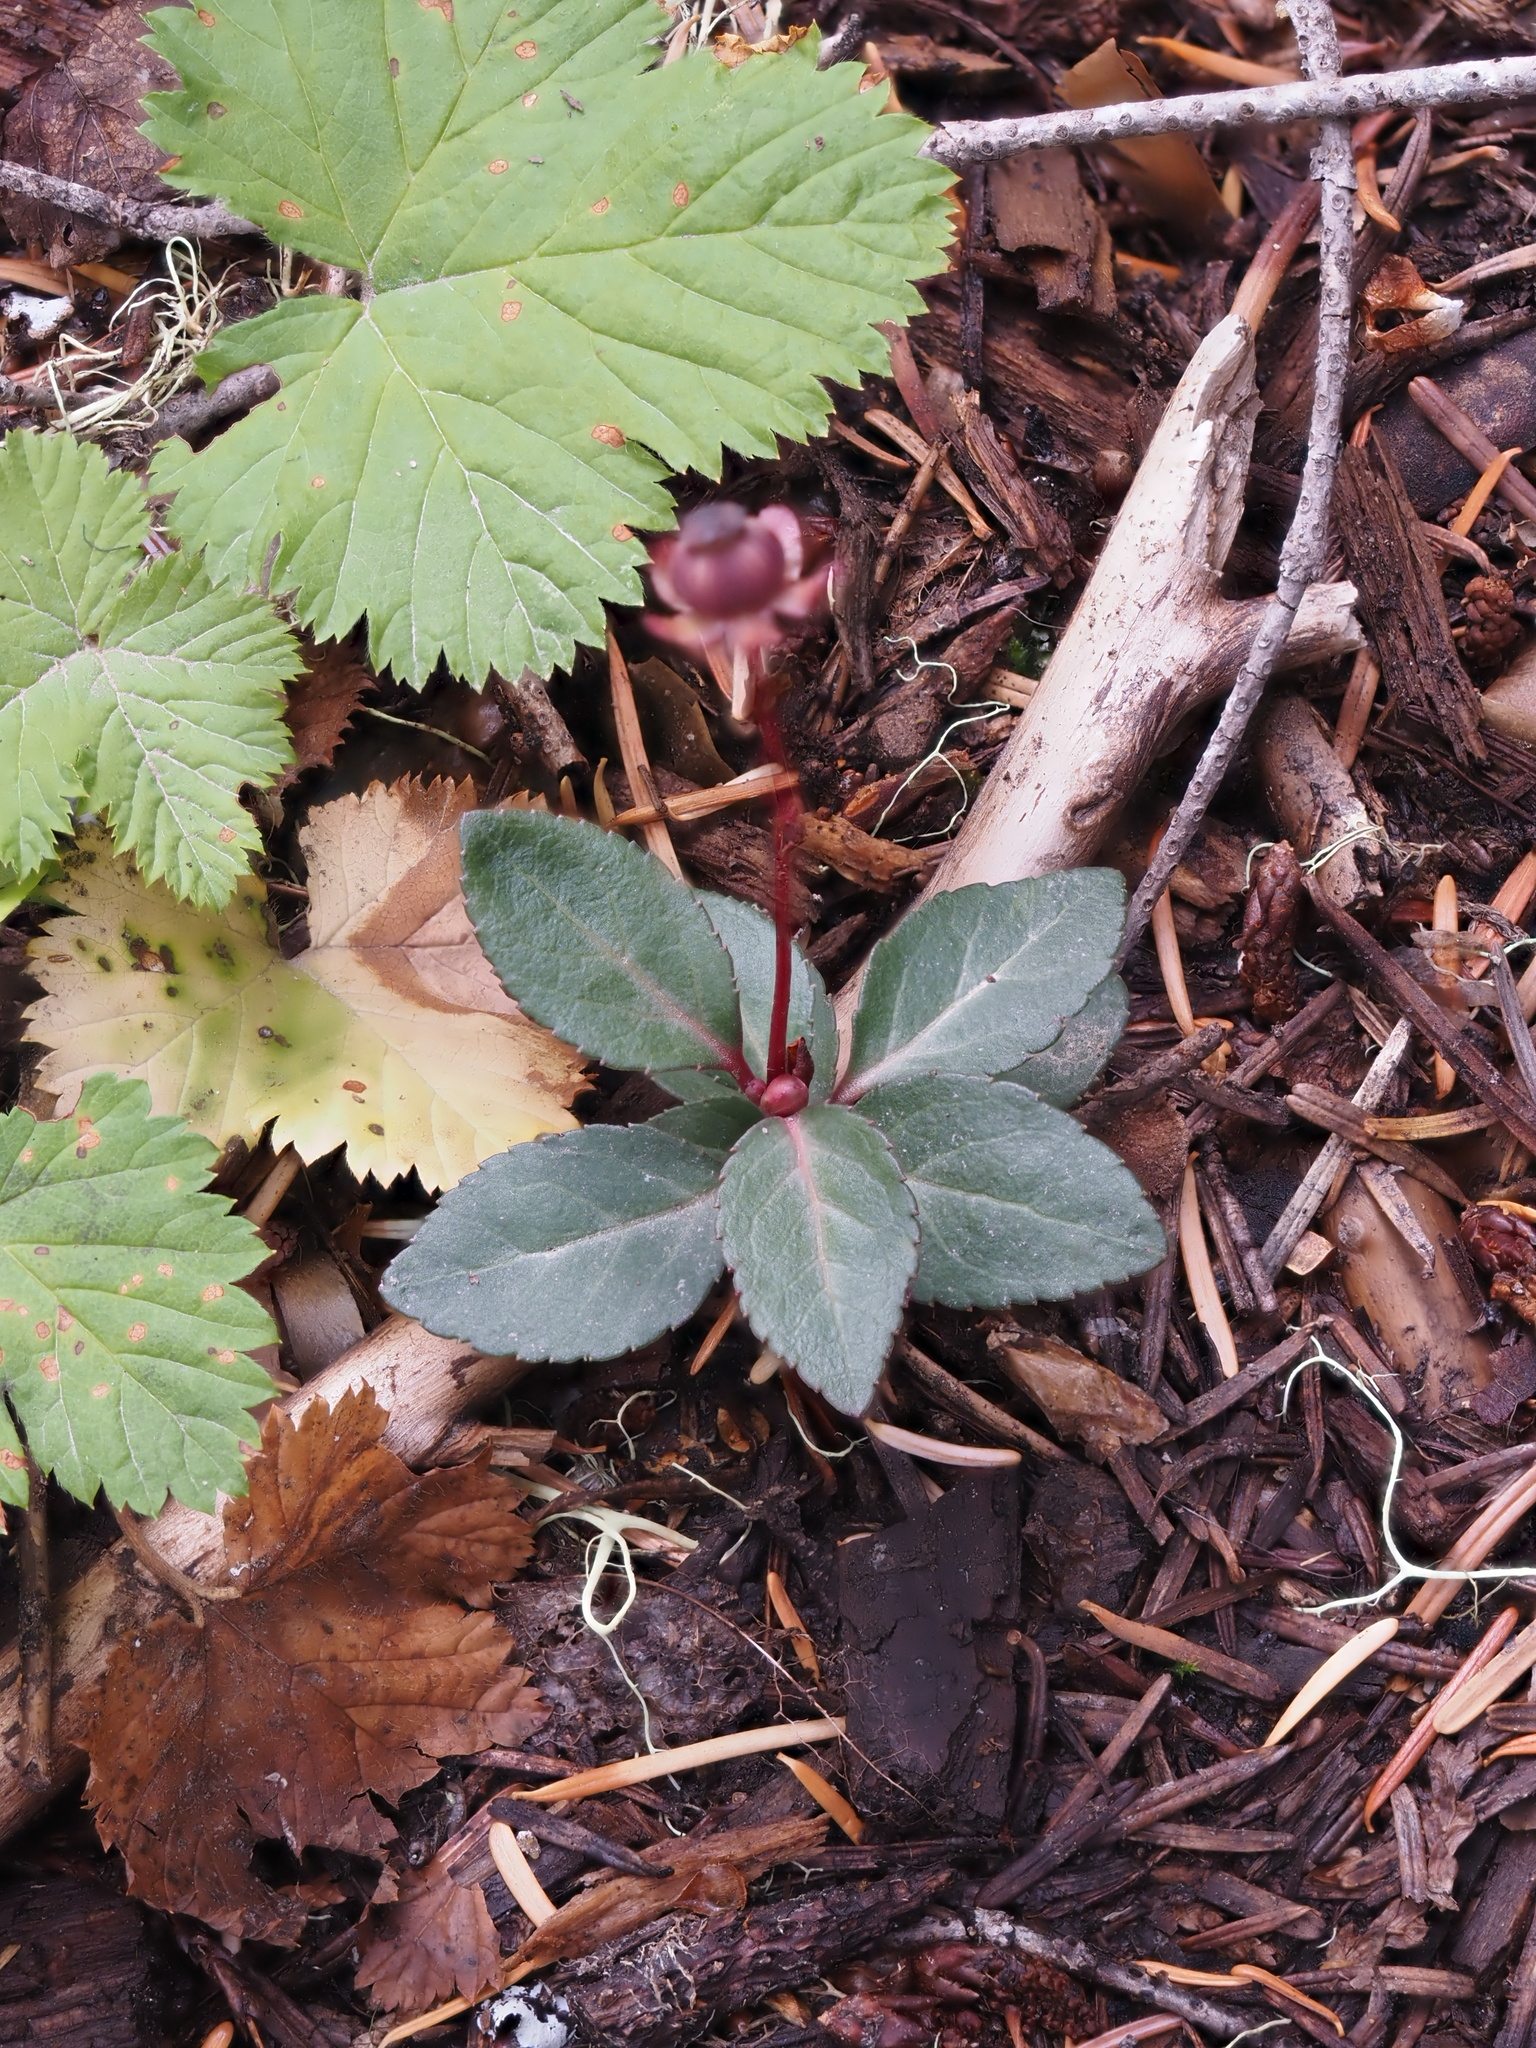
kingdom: Plantae
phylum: Tracheophyta
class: Magnoliopsida
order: Ericales
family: Ericaceae
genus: Chimaphila
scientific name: Chimaphila menziesii
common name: Menzies' pipsissewa
